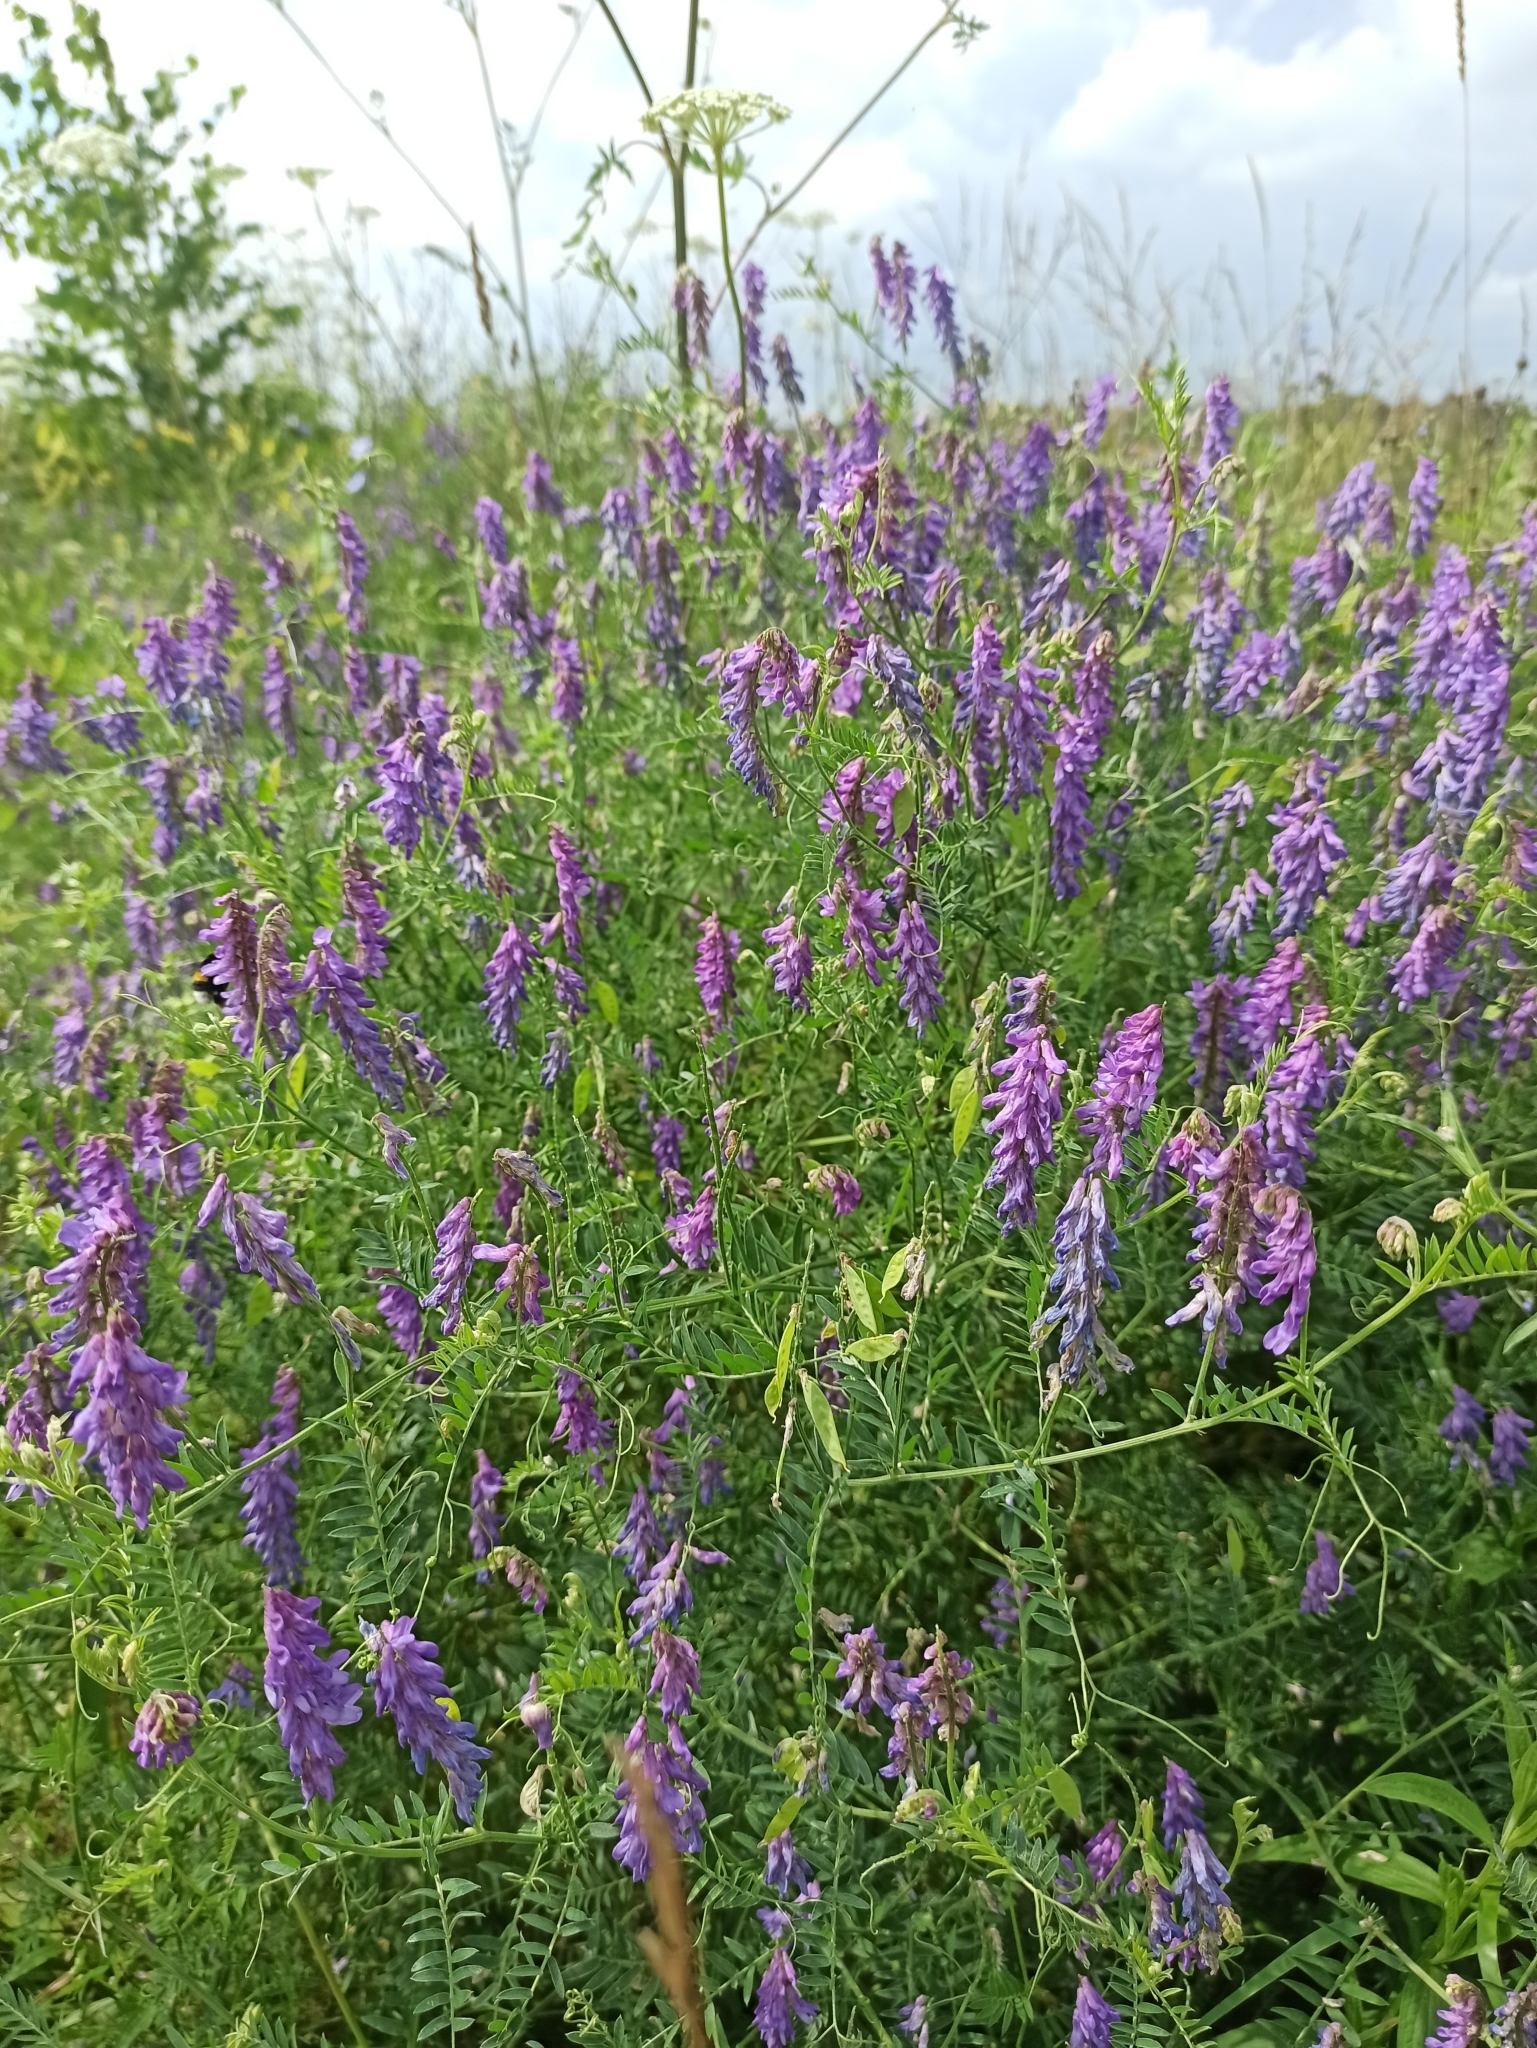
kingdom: Plantae
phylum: Tracheophyta
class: Magnoliopsida
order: Fabales
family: Fabaceae
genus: Vicia
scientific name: Vicia cracca
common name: Bird vetch
